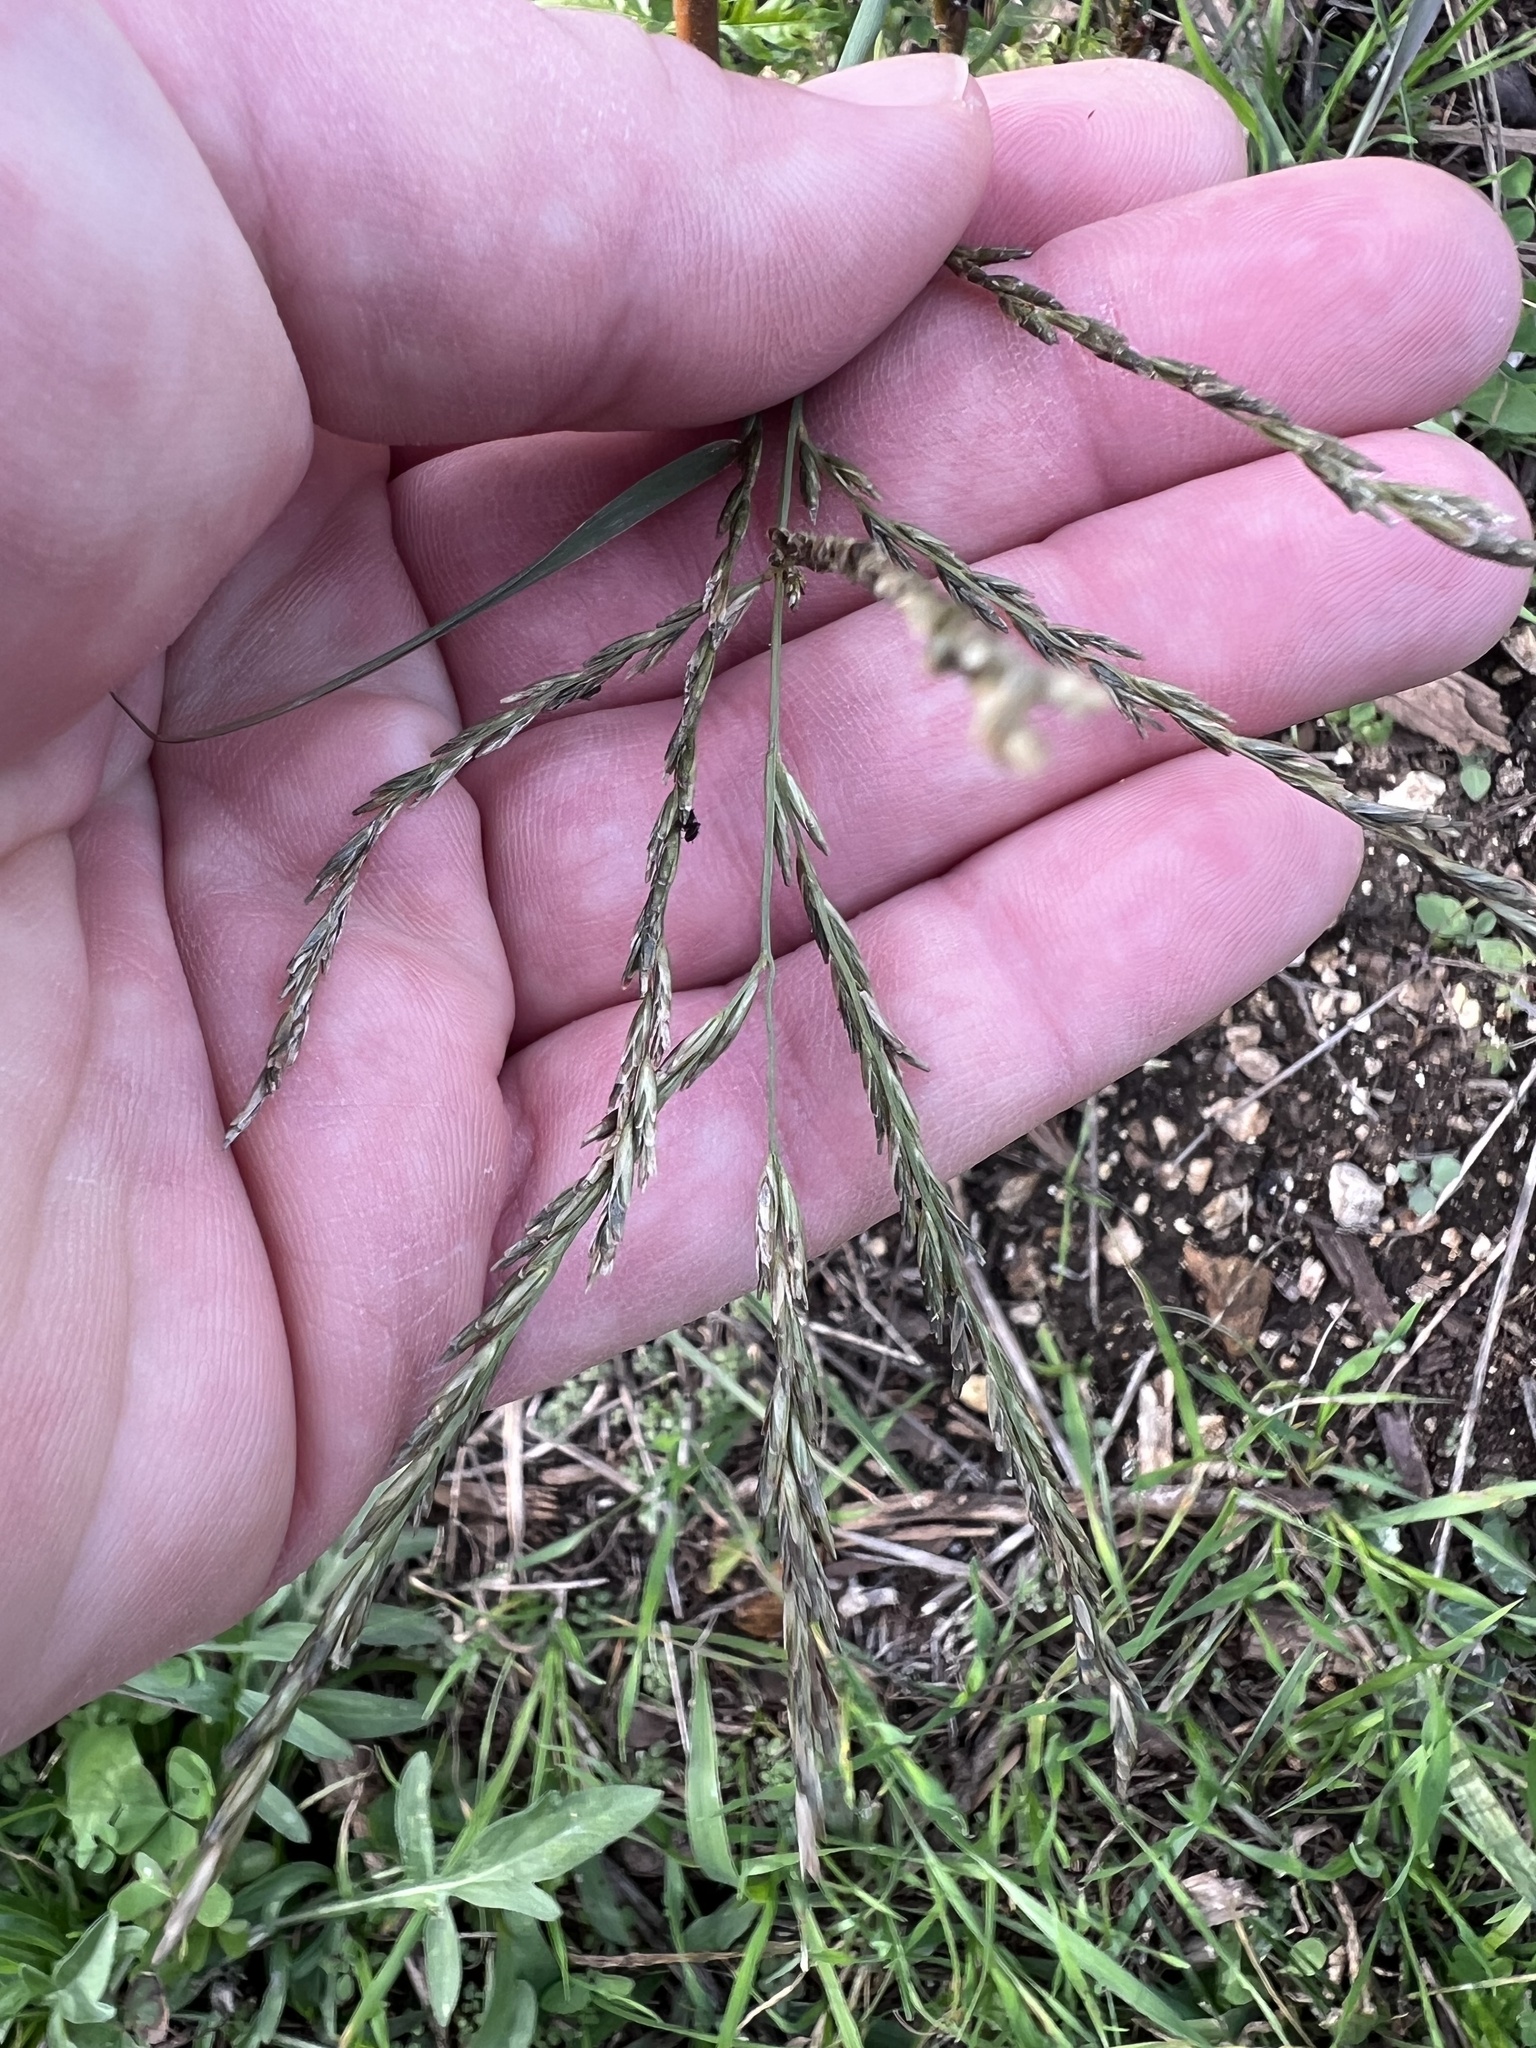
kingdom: Plantae
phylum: Tracheophyta
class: Liliopsida
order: Poales
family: Poaceae
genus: Disakisperma
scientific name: Disakisperma dubium
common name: Green sprangletop
